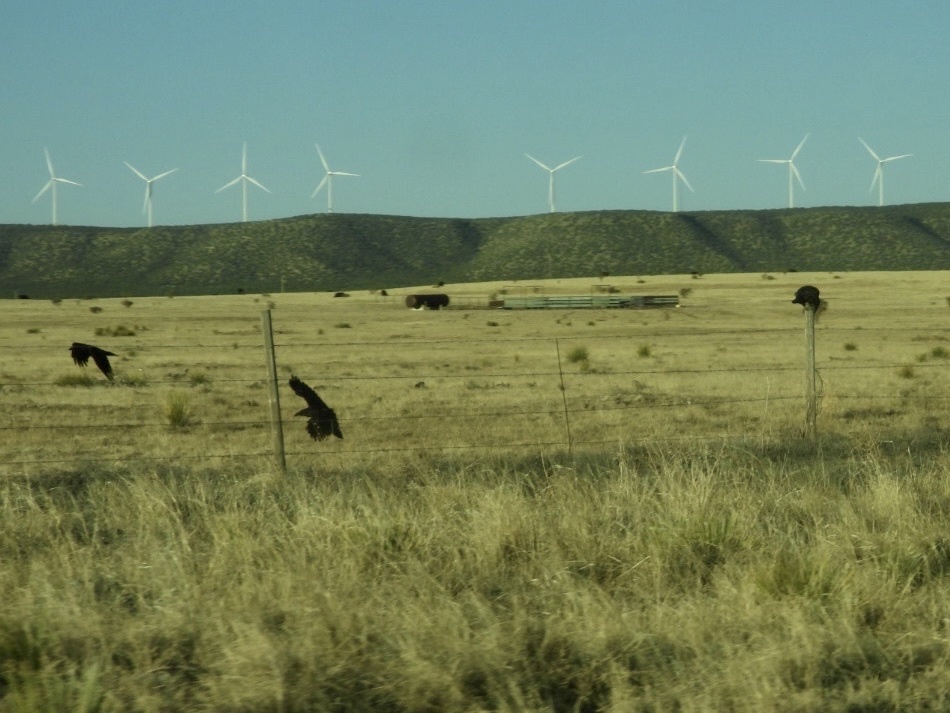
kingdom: Animalia
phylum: Chordata
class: Aves
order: Passeriformes
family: Corvidae
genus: Corvus
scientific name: Corvus corax
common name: Common raven
